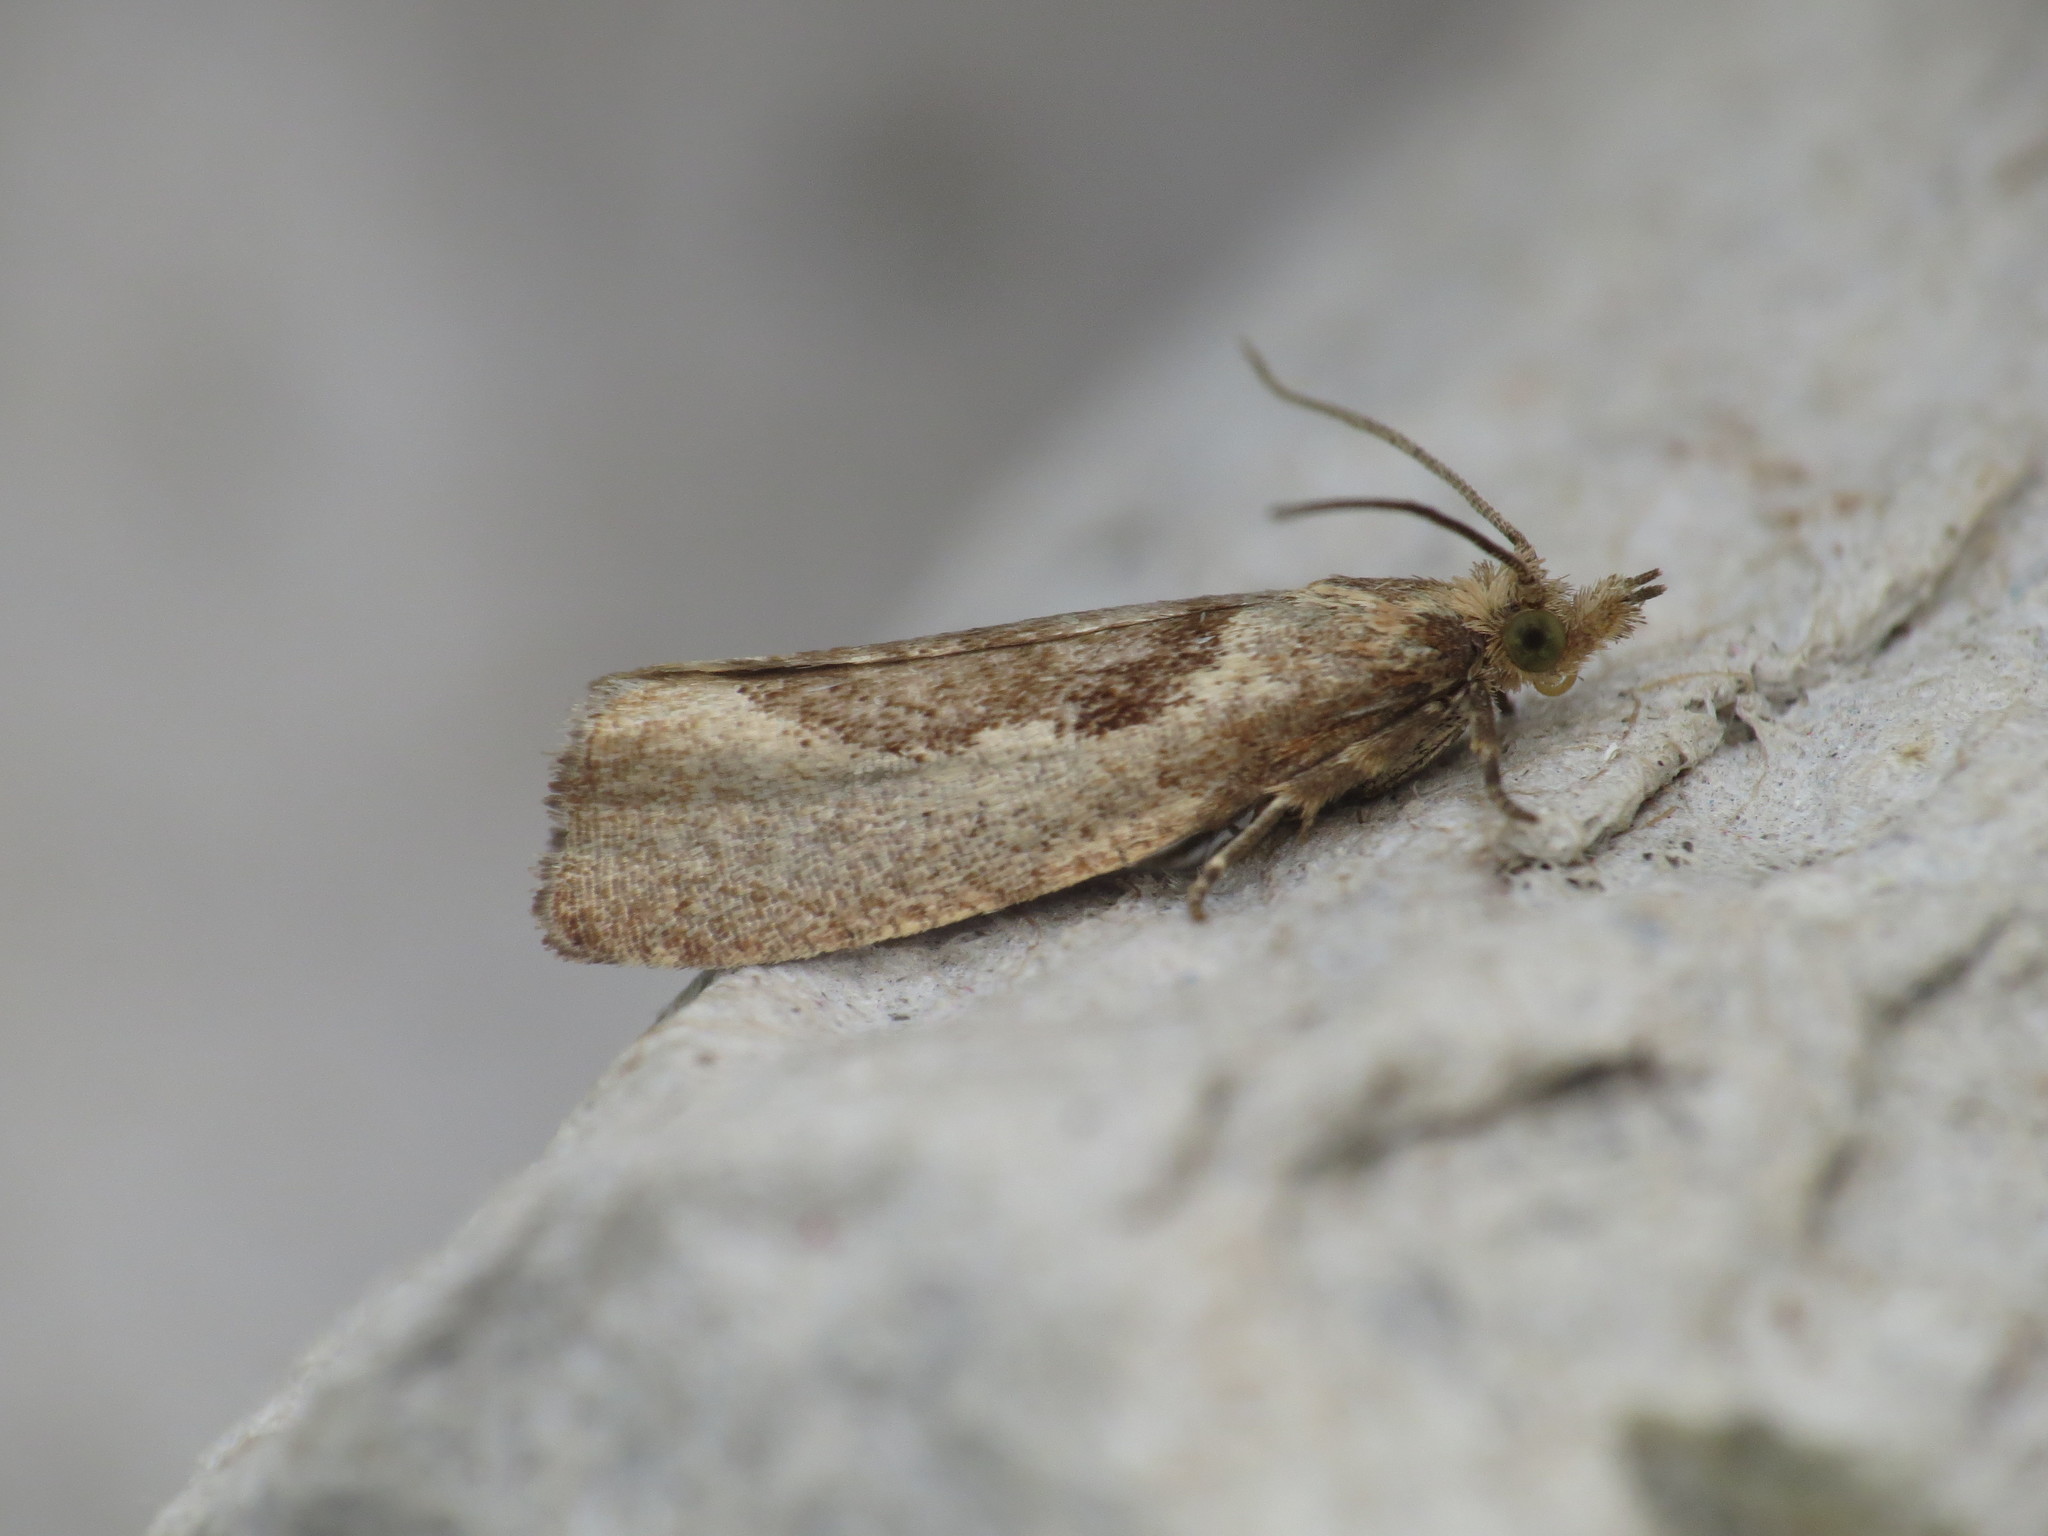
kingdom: Animalia
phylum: Arthropoda
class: Insecta
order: Lepidoptera
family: Tortricidae
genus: Epinotia
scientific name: Epinotia solandriana
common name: Variable bell
